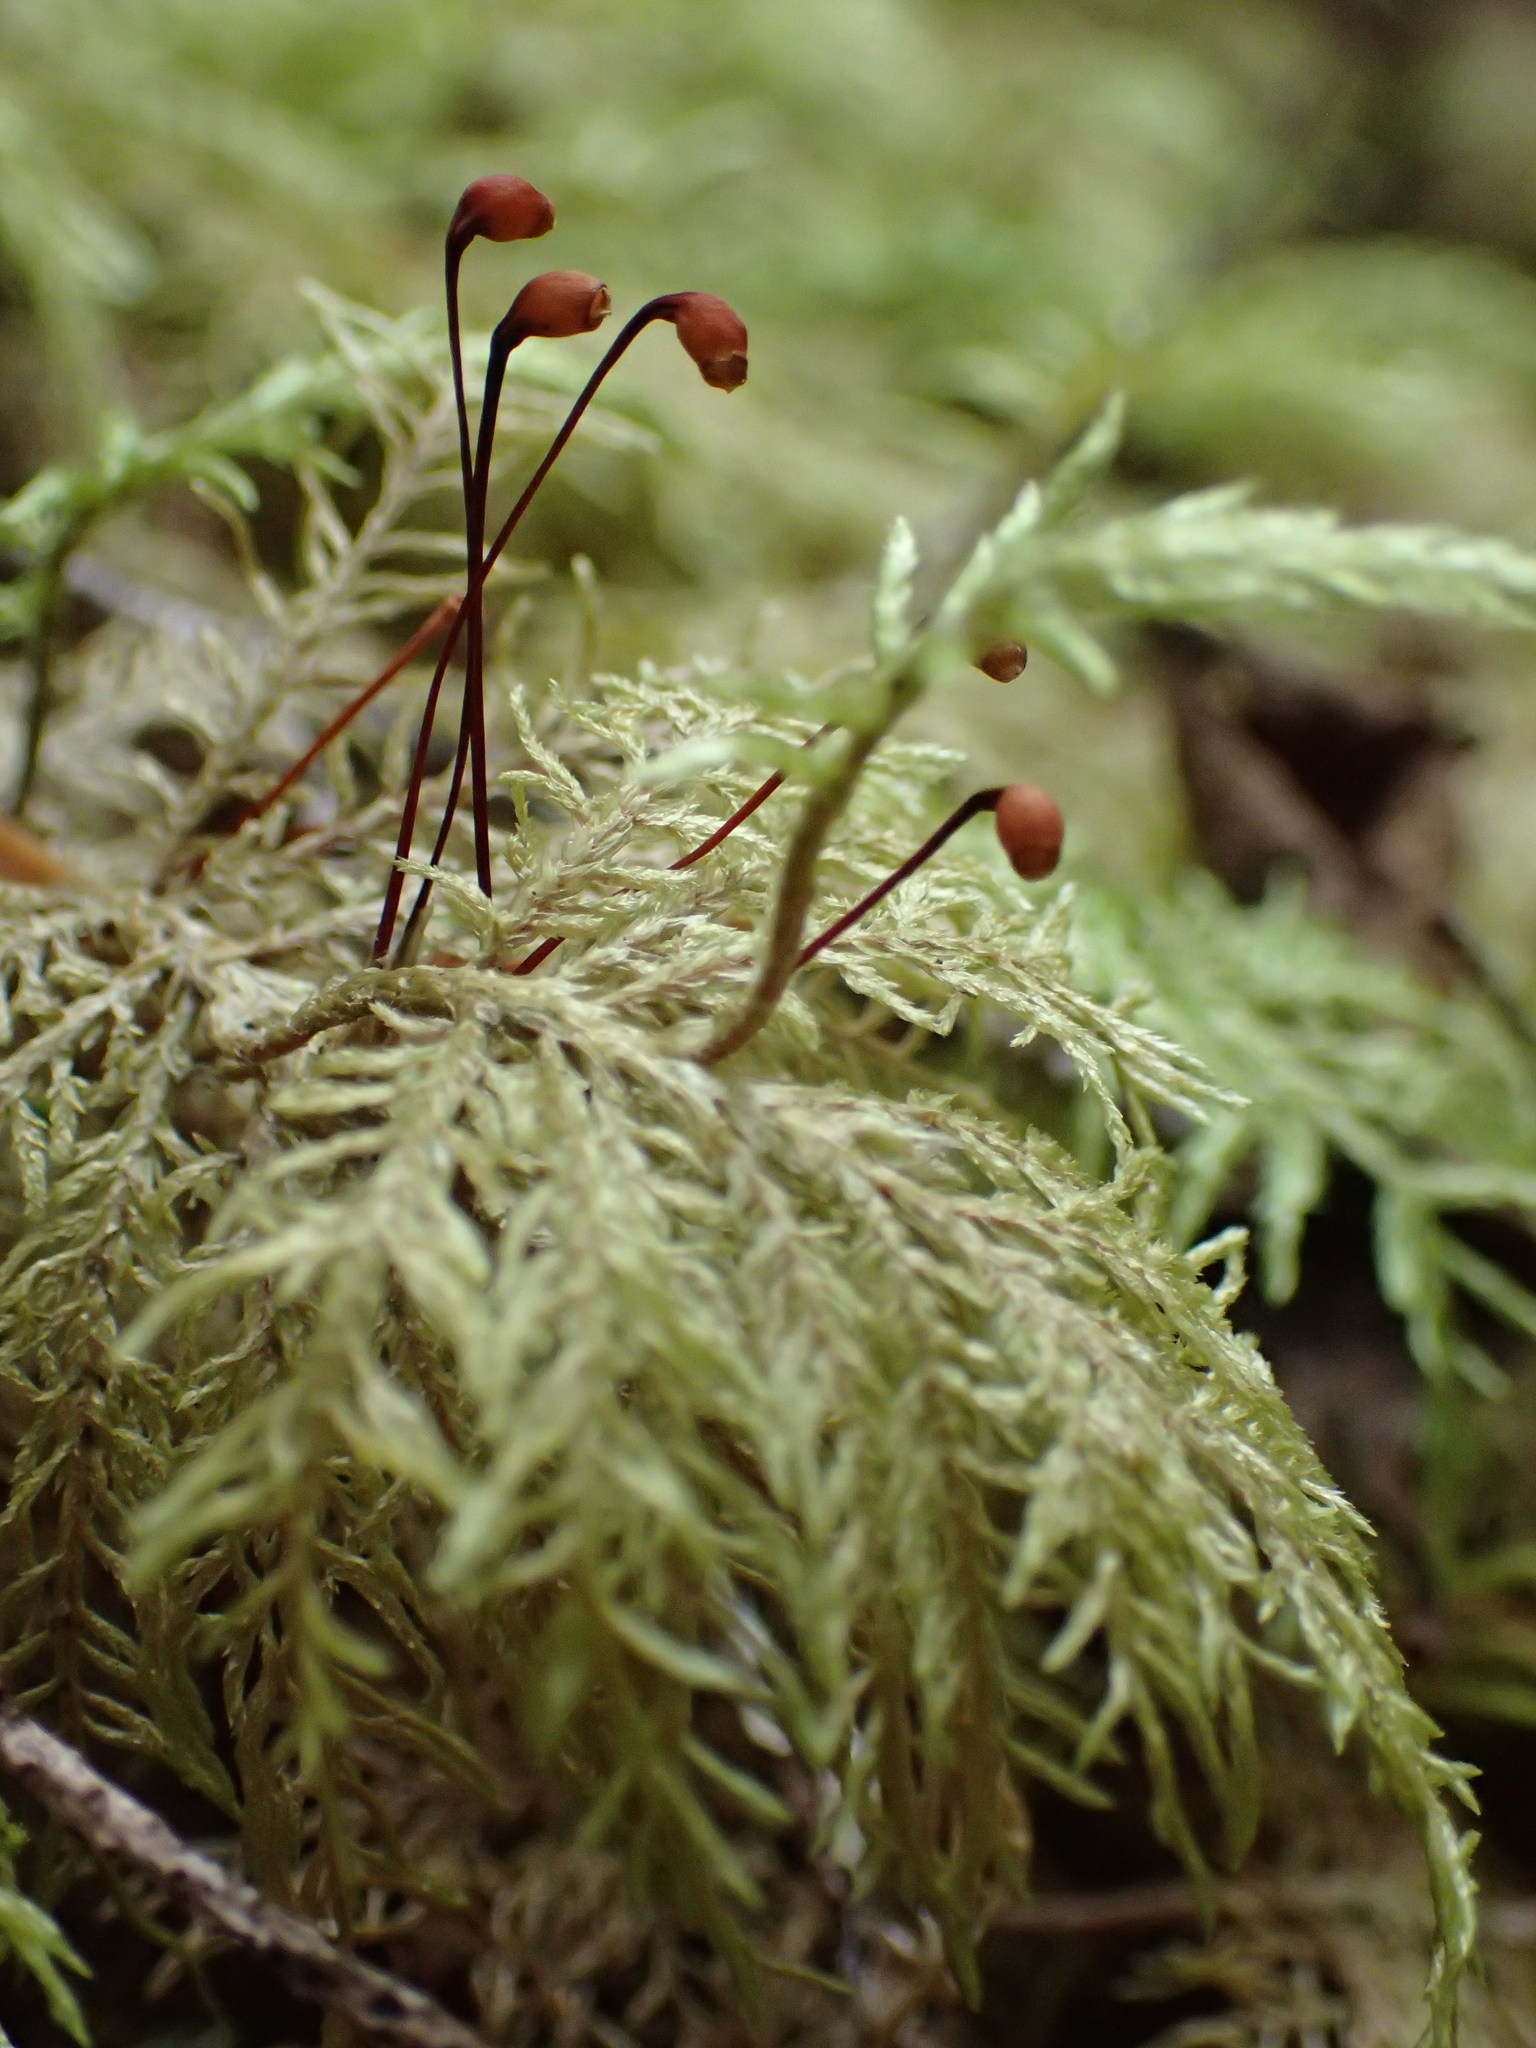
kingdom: Plantae
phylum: Bryophyta
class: Bryopsida
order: Hypnales
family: Hylocomiaceae
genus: Hylocomium
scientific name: Hylocomium splendens
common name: Stairstep moss
